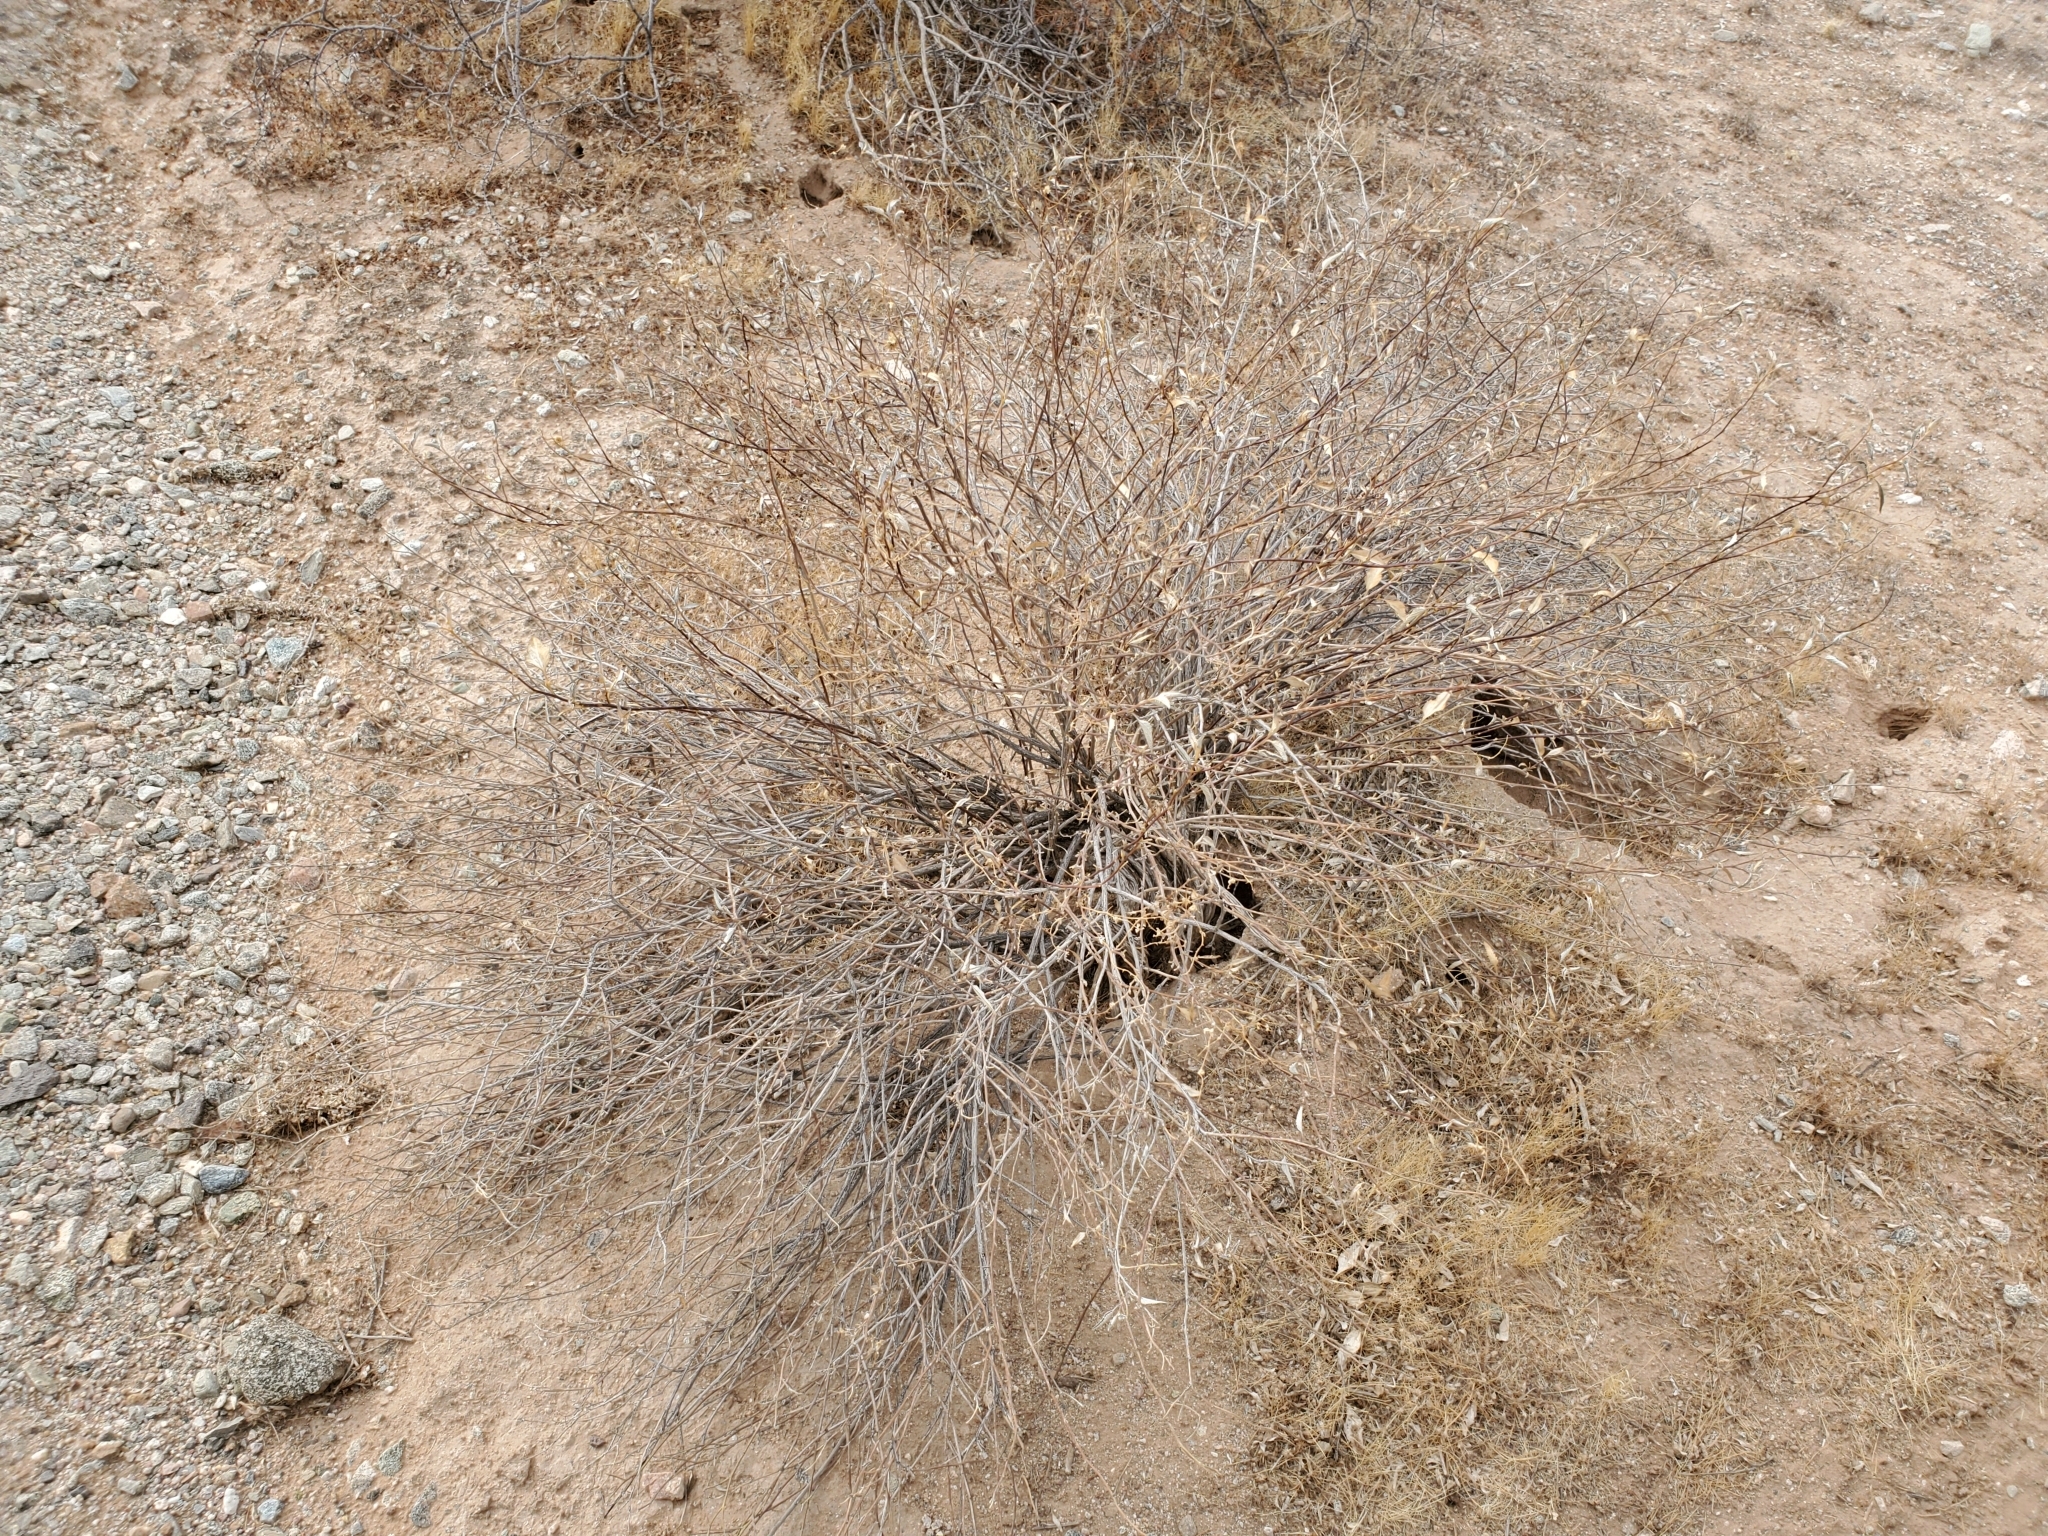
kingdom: Plantae
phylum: Tracheophyta
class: Magnoliopsida
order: Asterales
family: Asteraceae
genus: Ambrosia
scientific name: Ambrosia deltoidea
